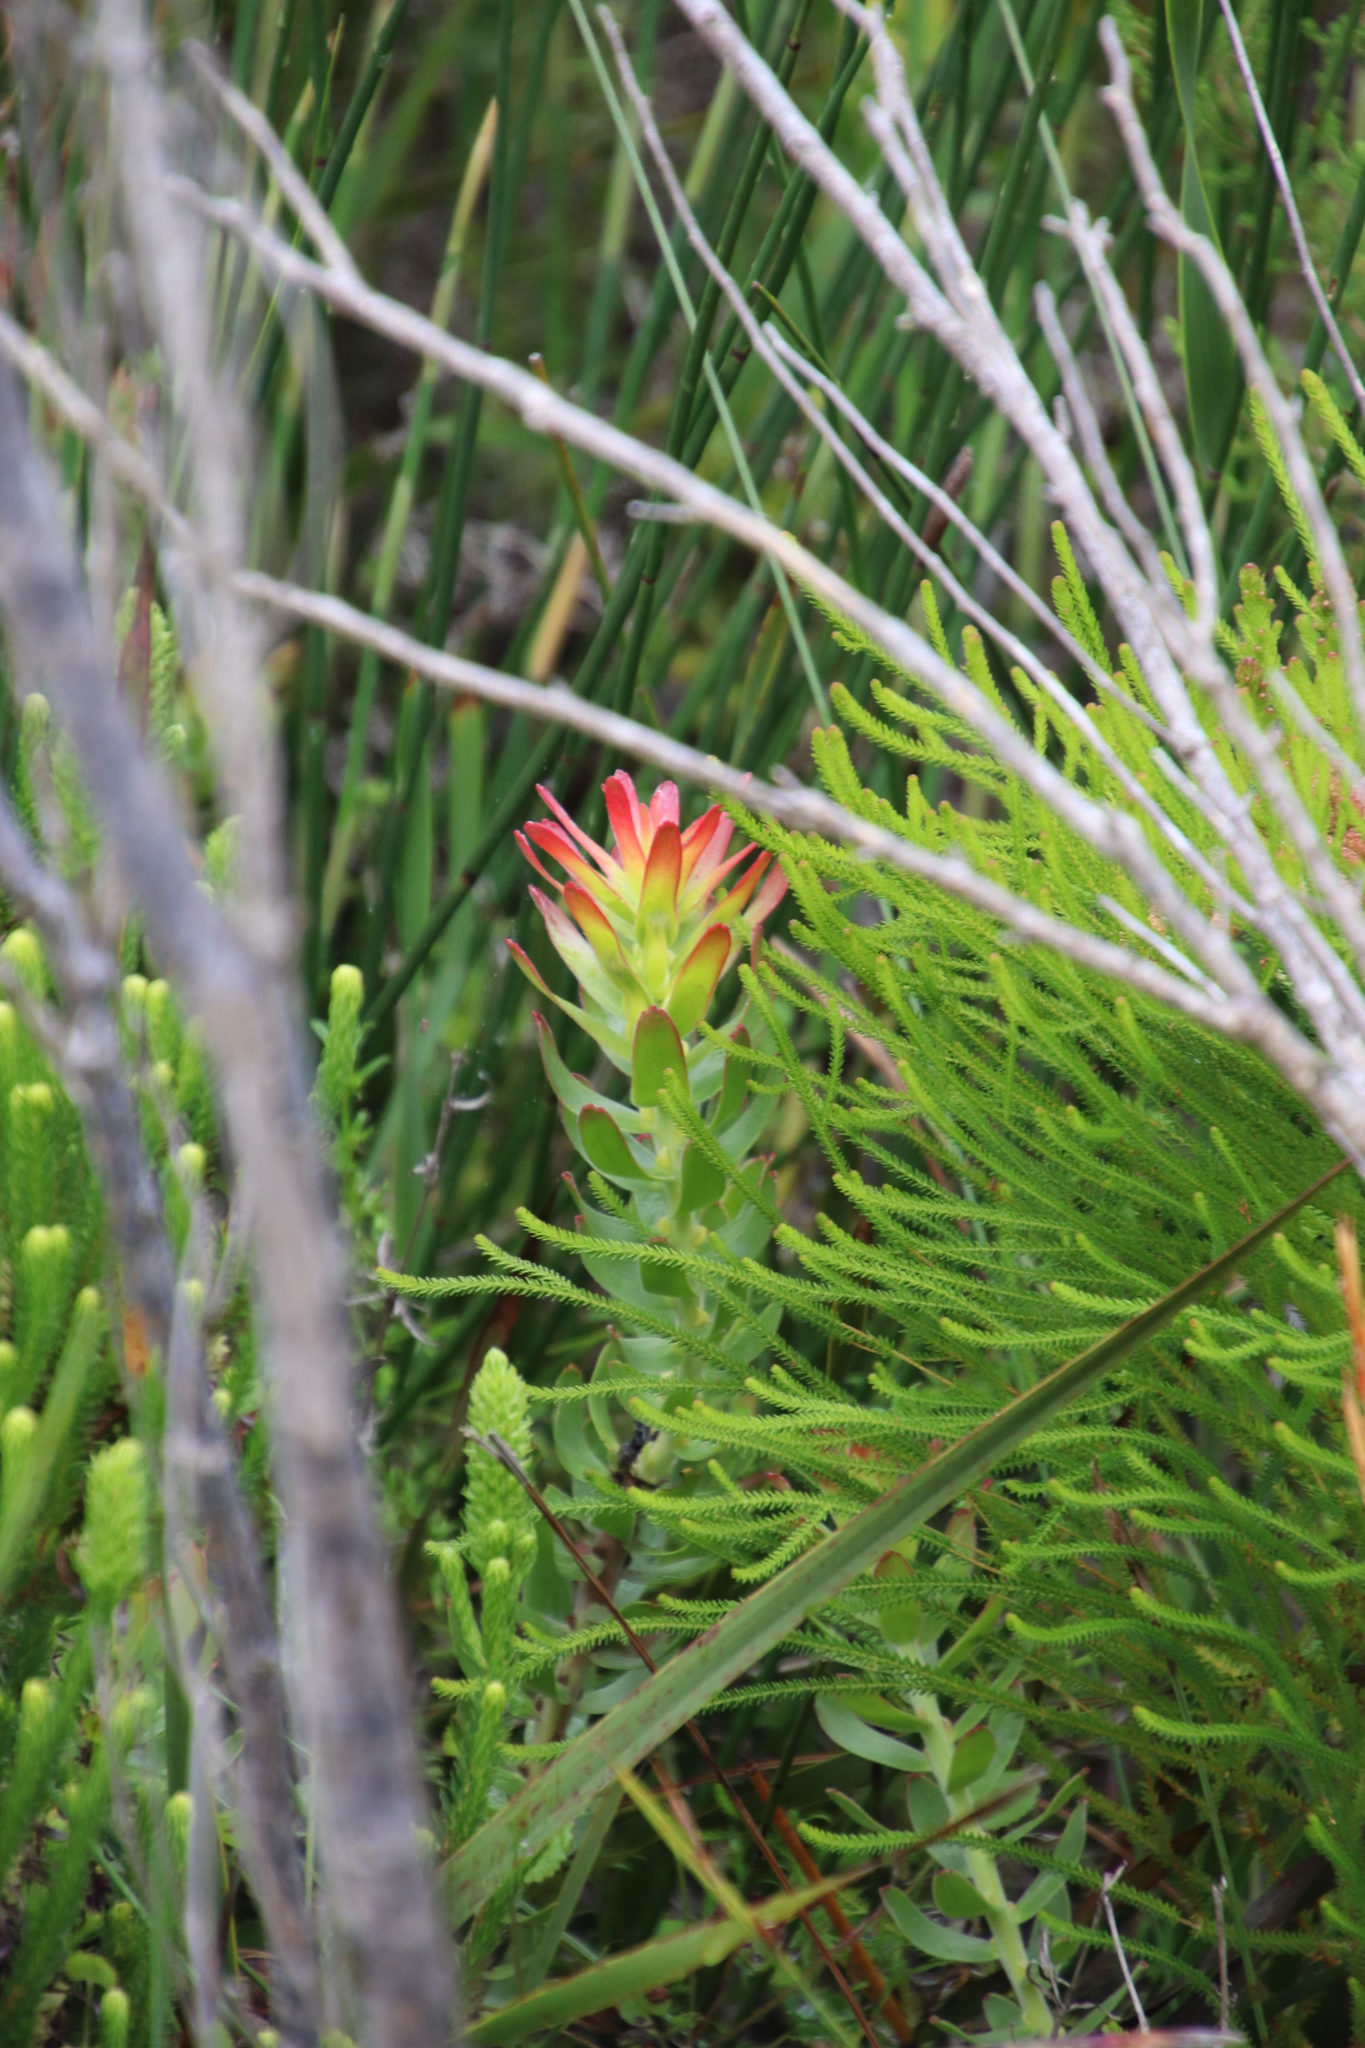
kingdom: Plantae
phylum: Tracheophyta
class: Magnoliopsida
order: Proteales
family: Proteaceae
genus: Mimetes
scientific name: Mimetes cucullatus
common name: Common pagoda
